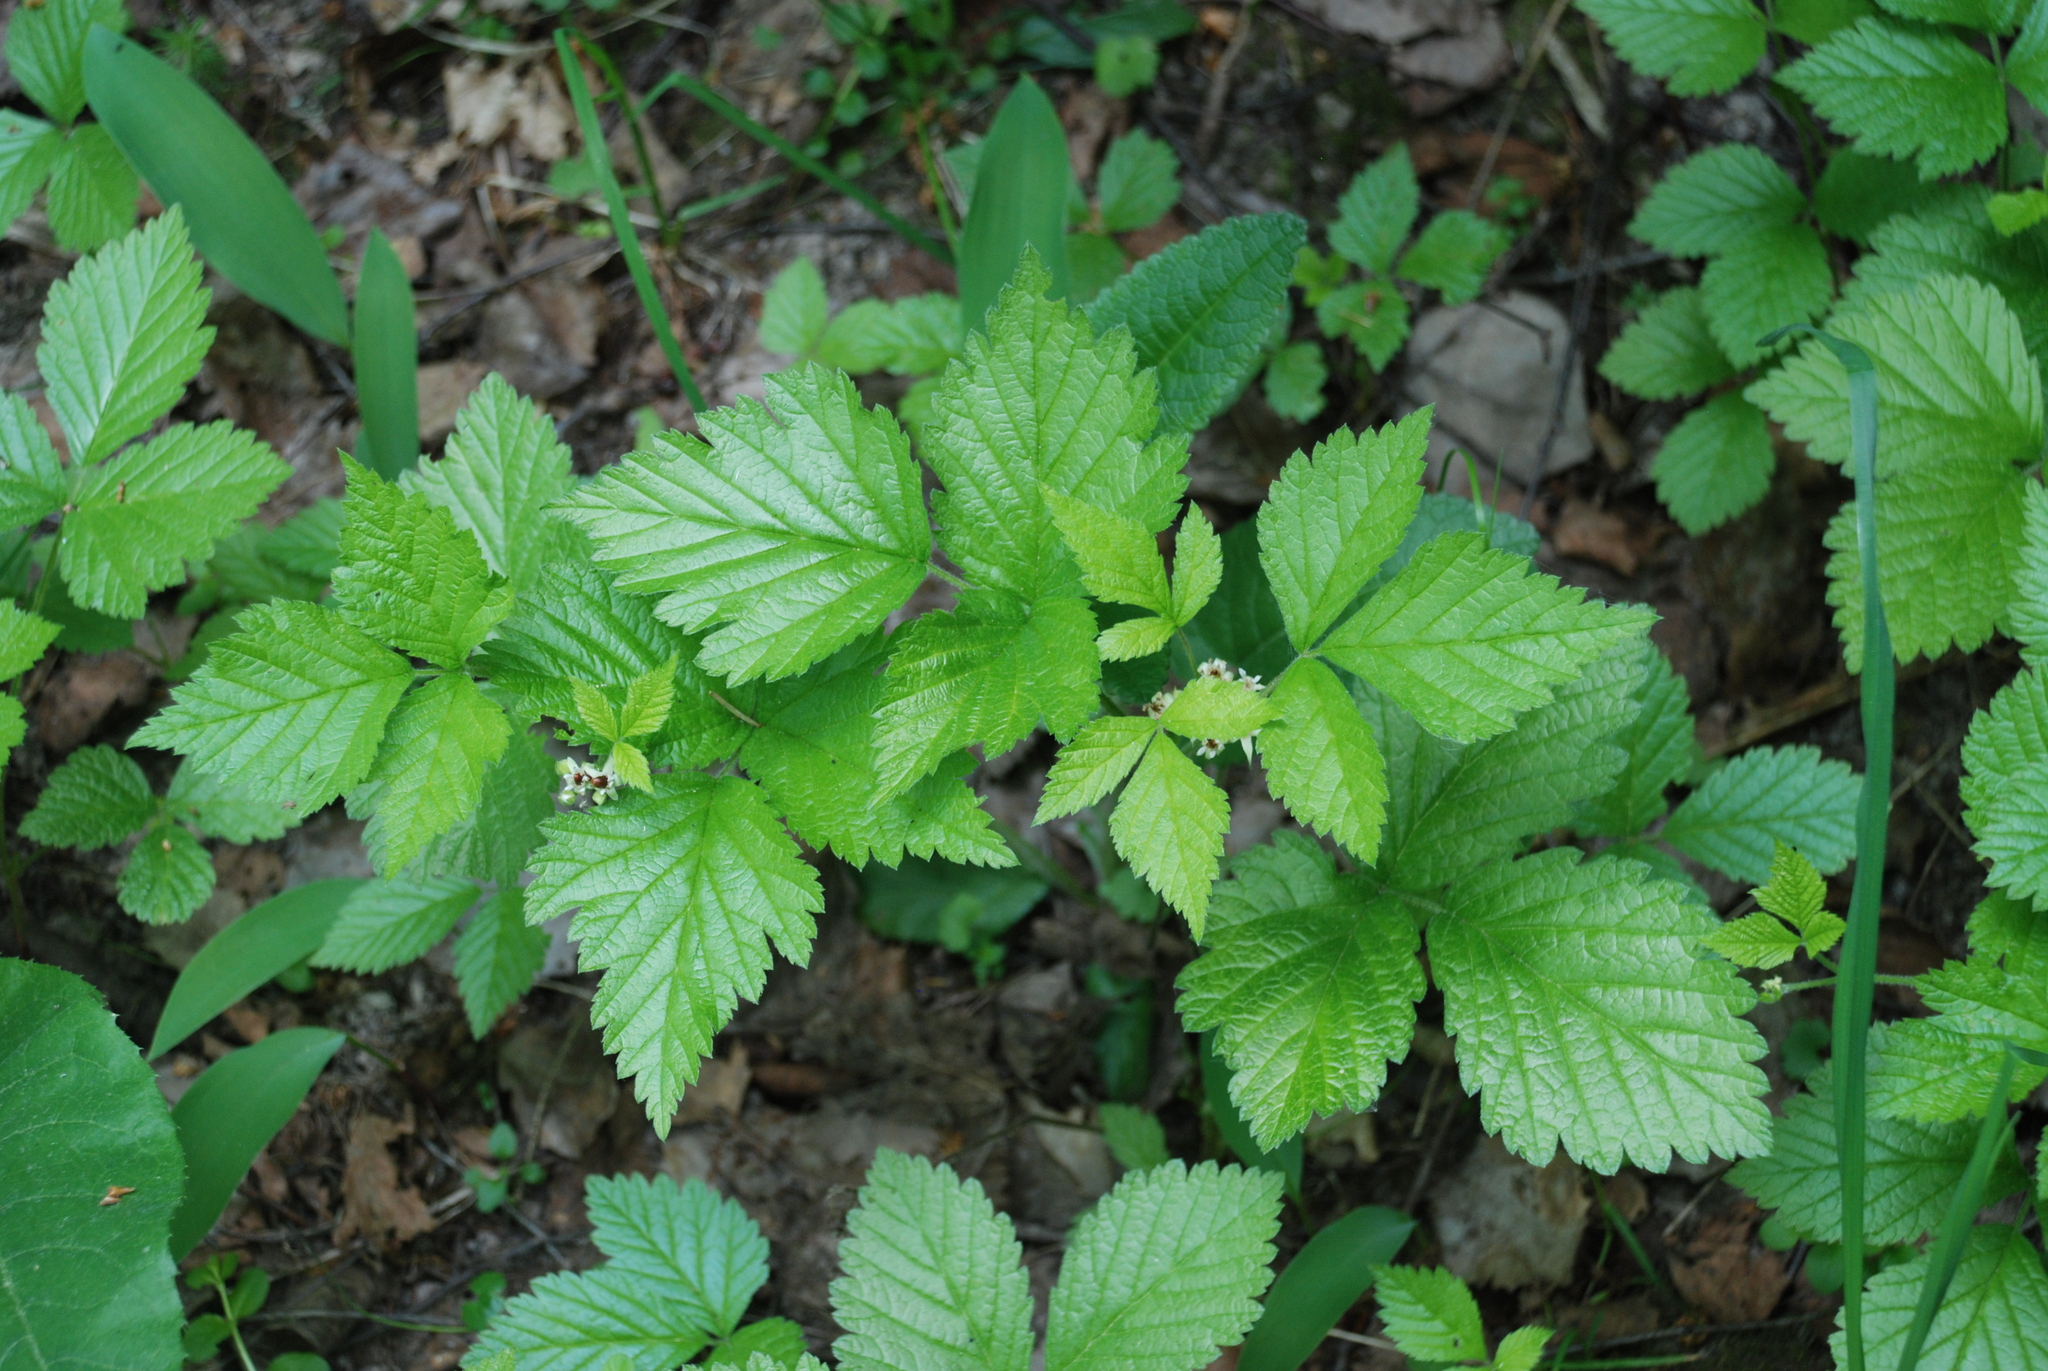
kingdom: Plantae
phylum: Tracheophyta
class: Magnoliopsida
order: Rosales
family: Rosaceae
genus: Rubus
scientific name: Rubus saxatilis
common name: Stone bramble
